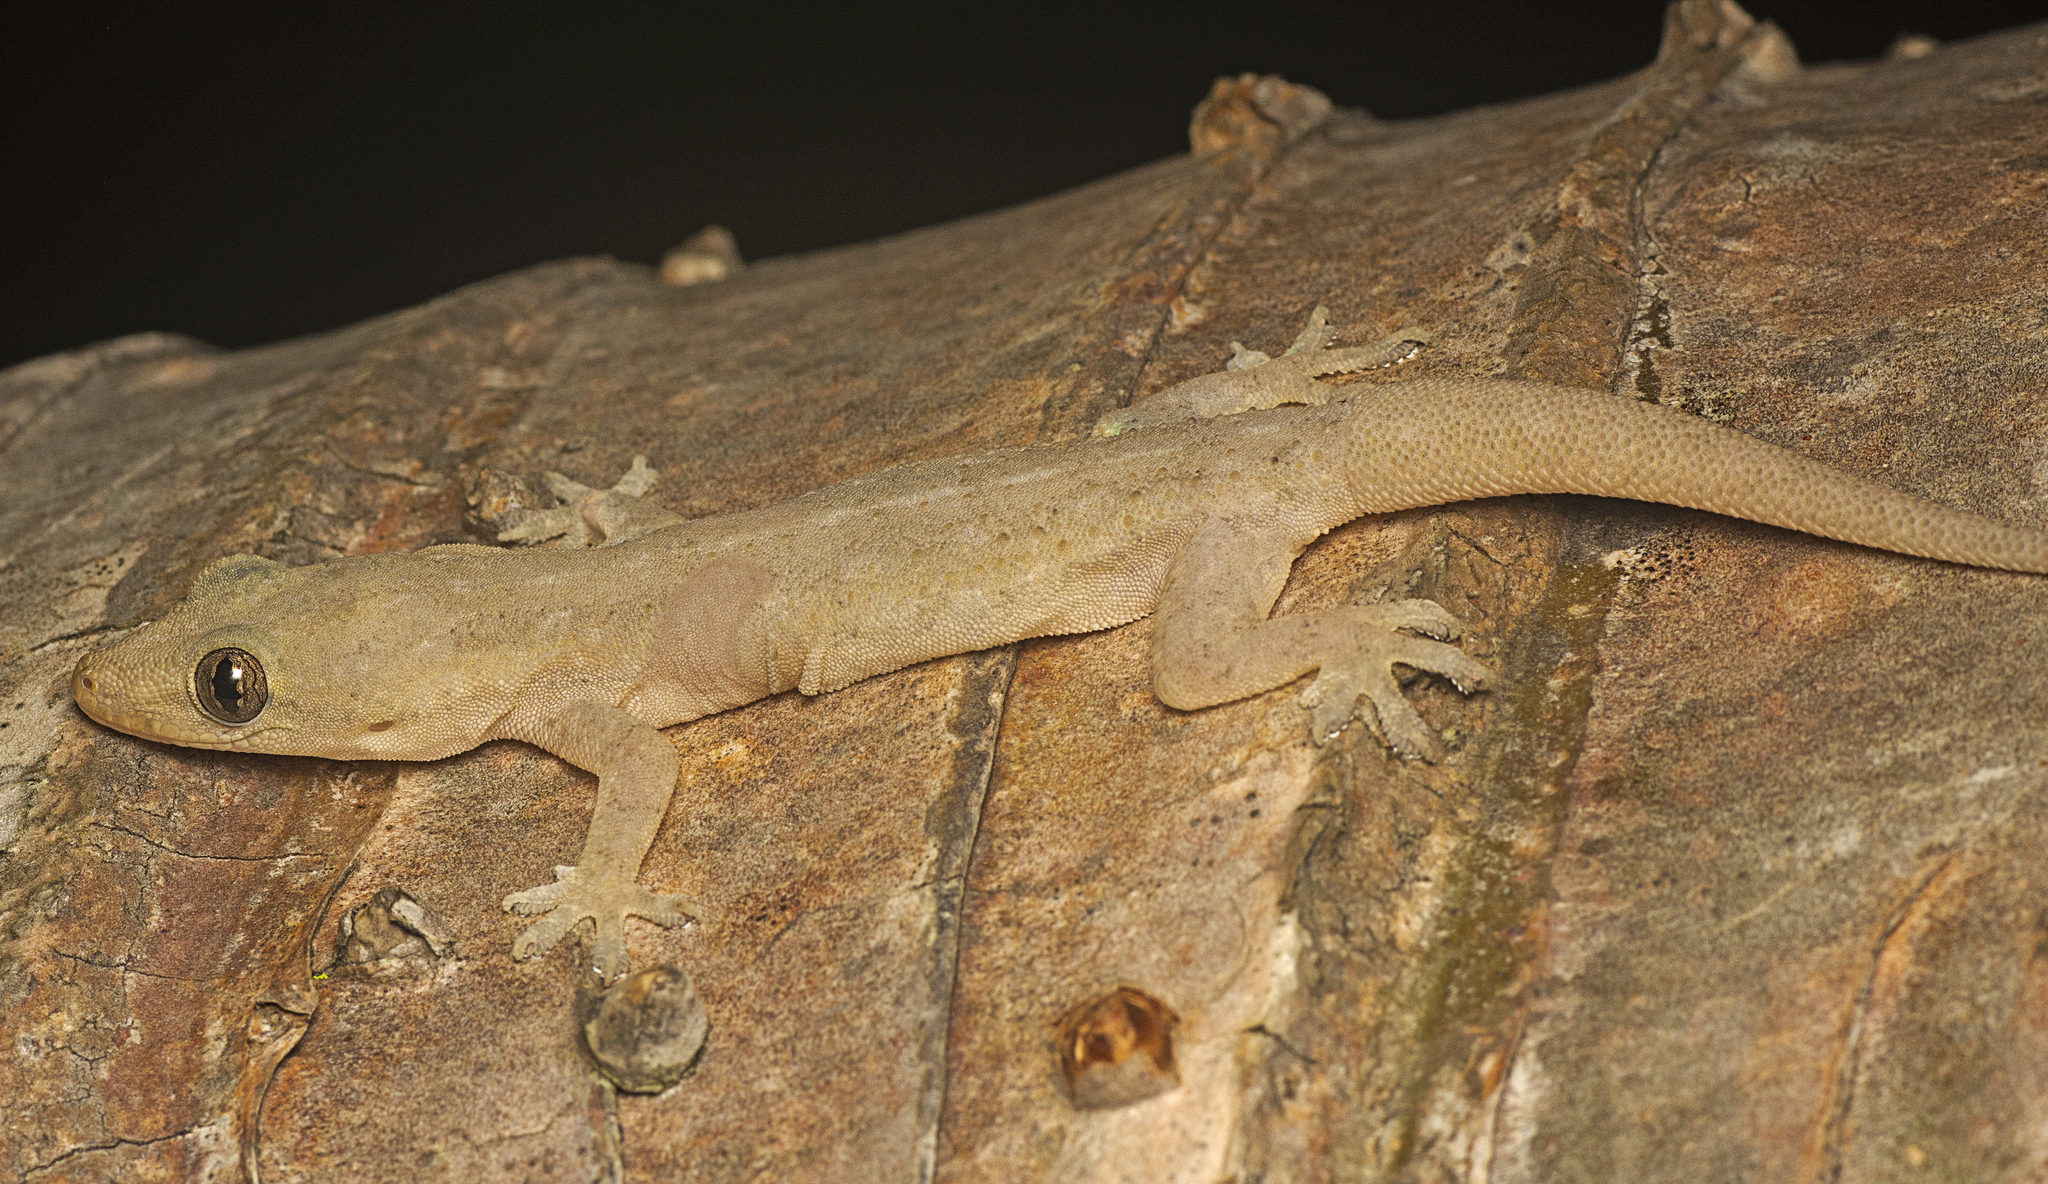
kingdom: Animalia
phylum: Chordata
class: Squamata
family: Gekkonidae
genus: Hemidactylus
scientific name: Hemidactylus frenatus
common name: Common house gecko
